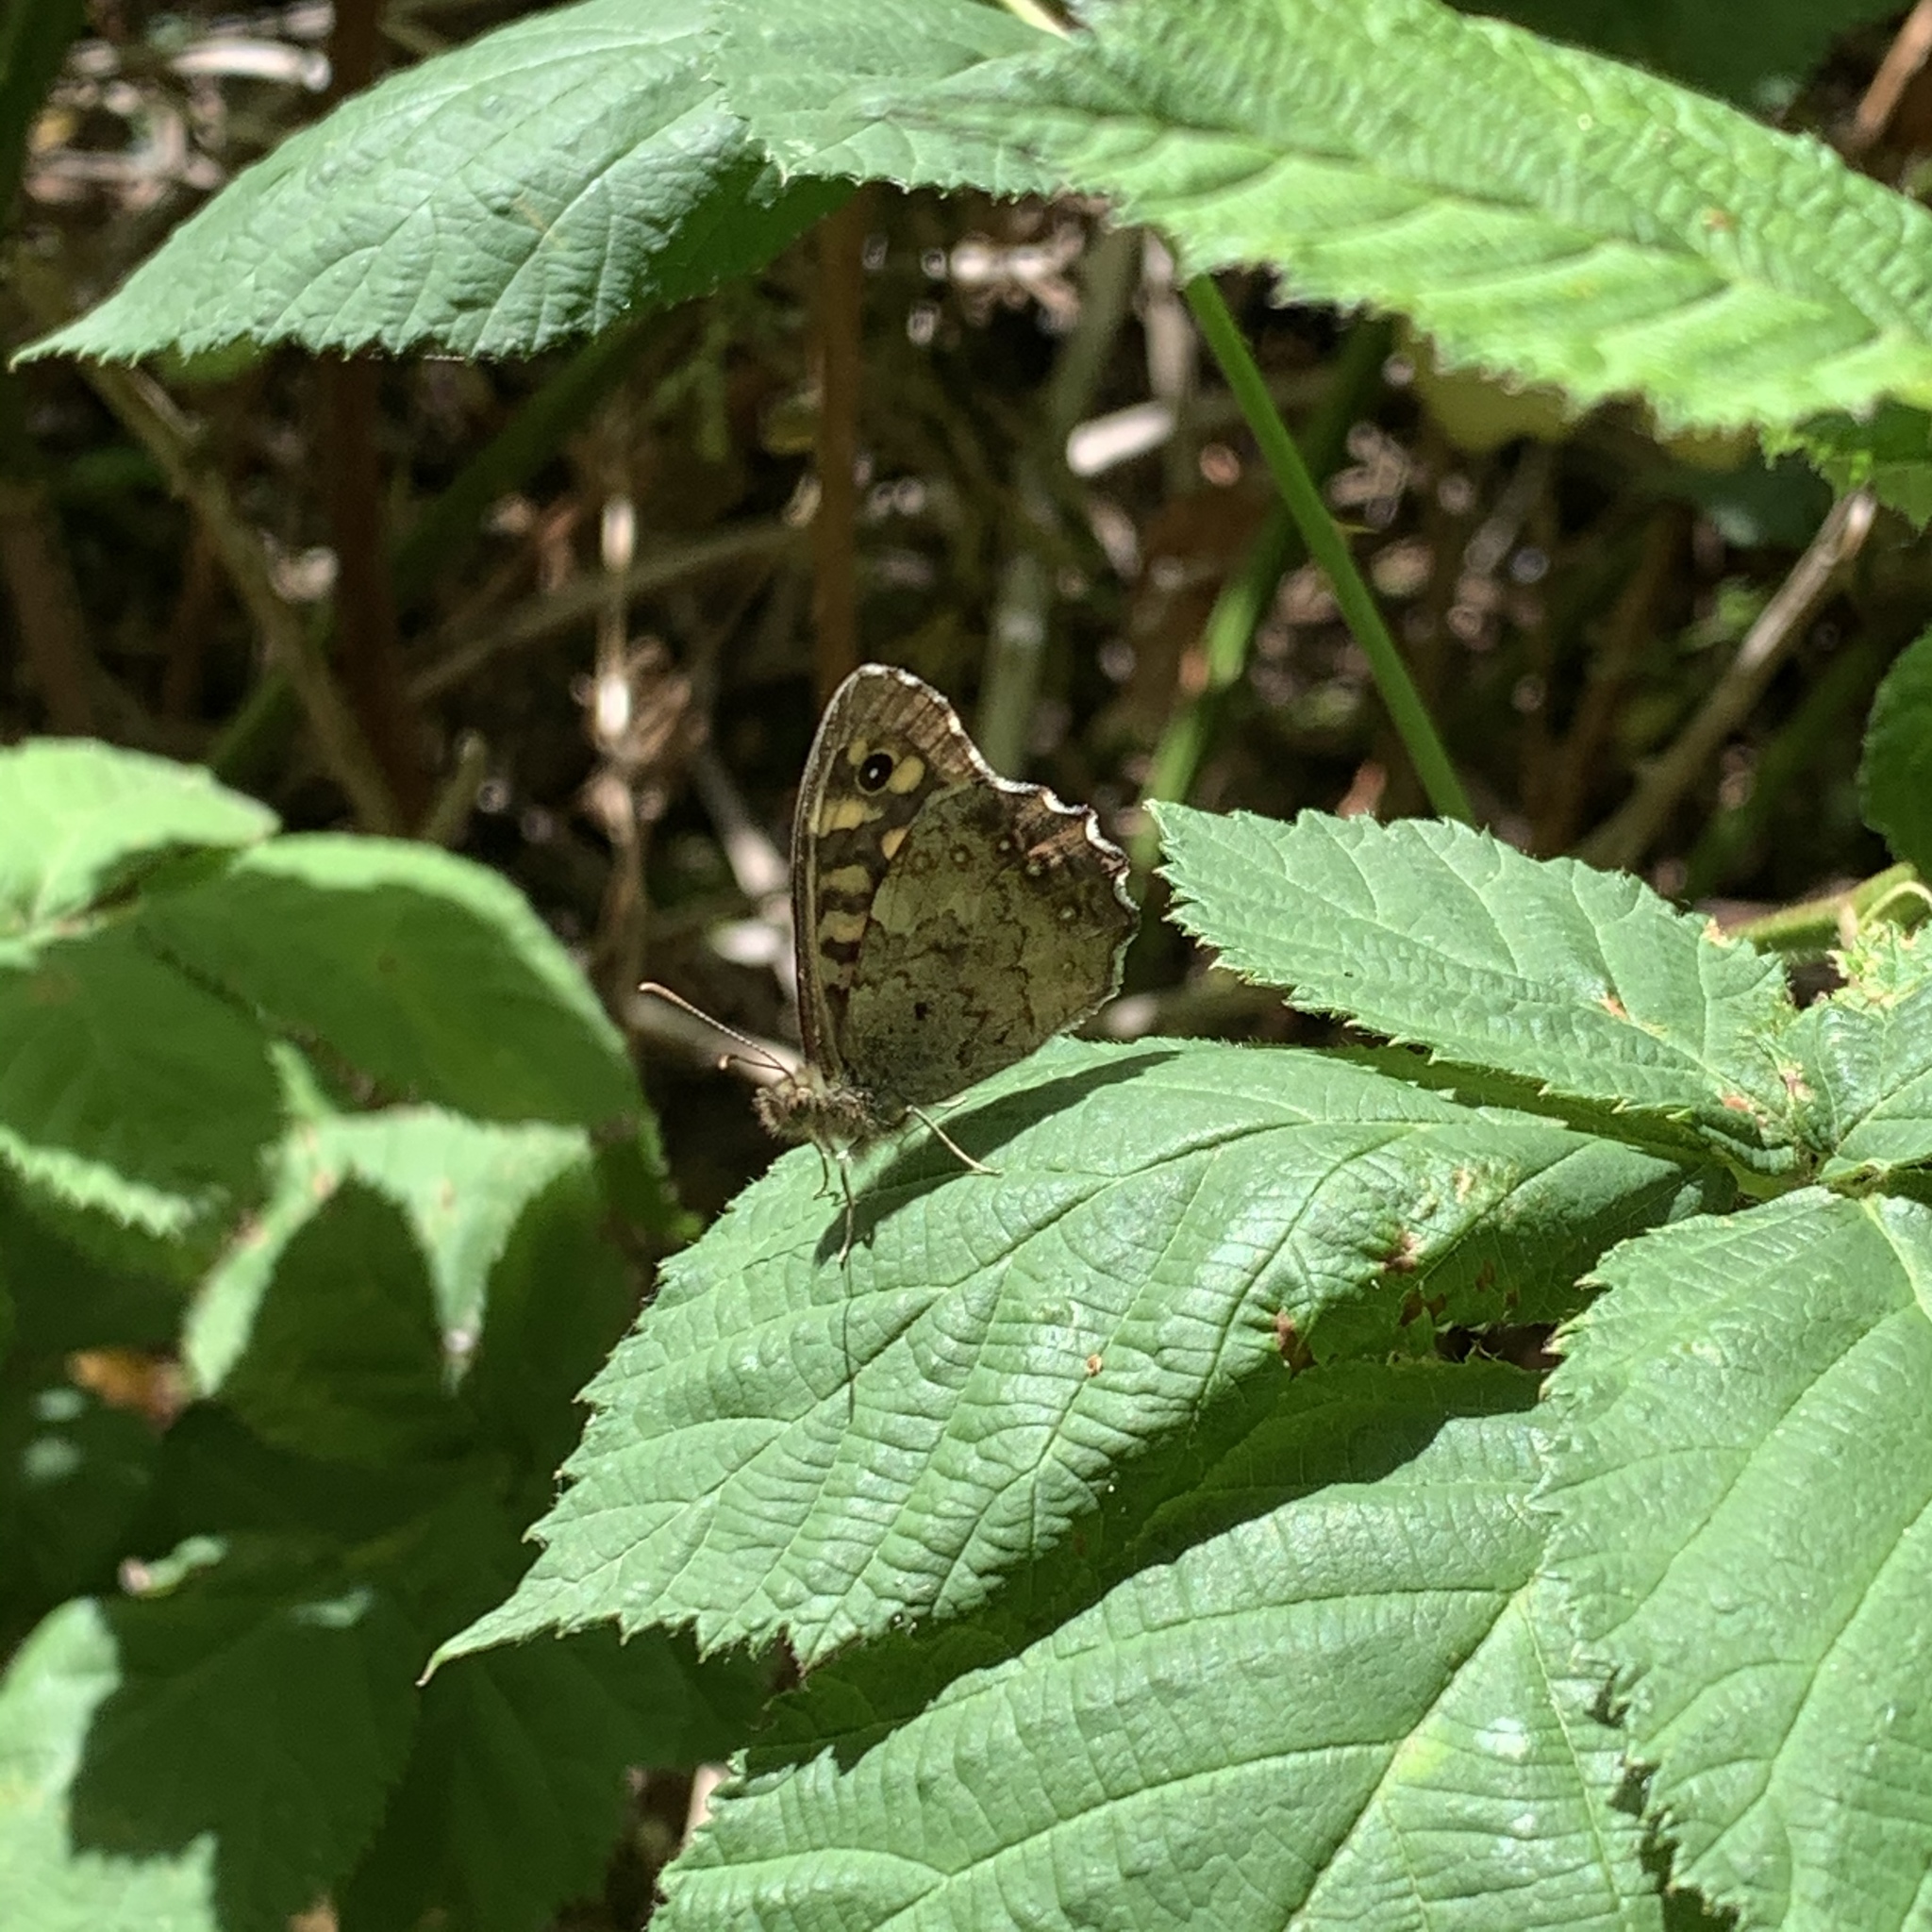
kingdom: Animalia
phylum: Arthropoda
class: Insecta
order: Lepidoptera
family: Nymphalidae
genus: Pararge
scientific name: Pararge aegeria
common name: Speckled wood
